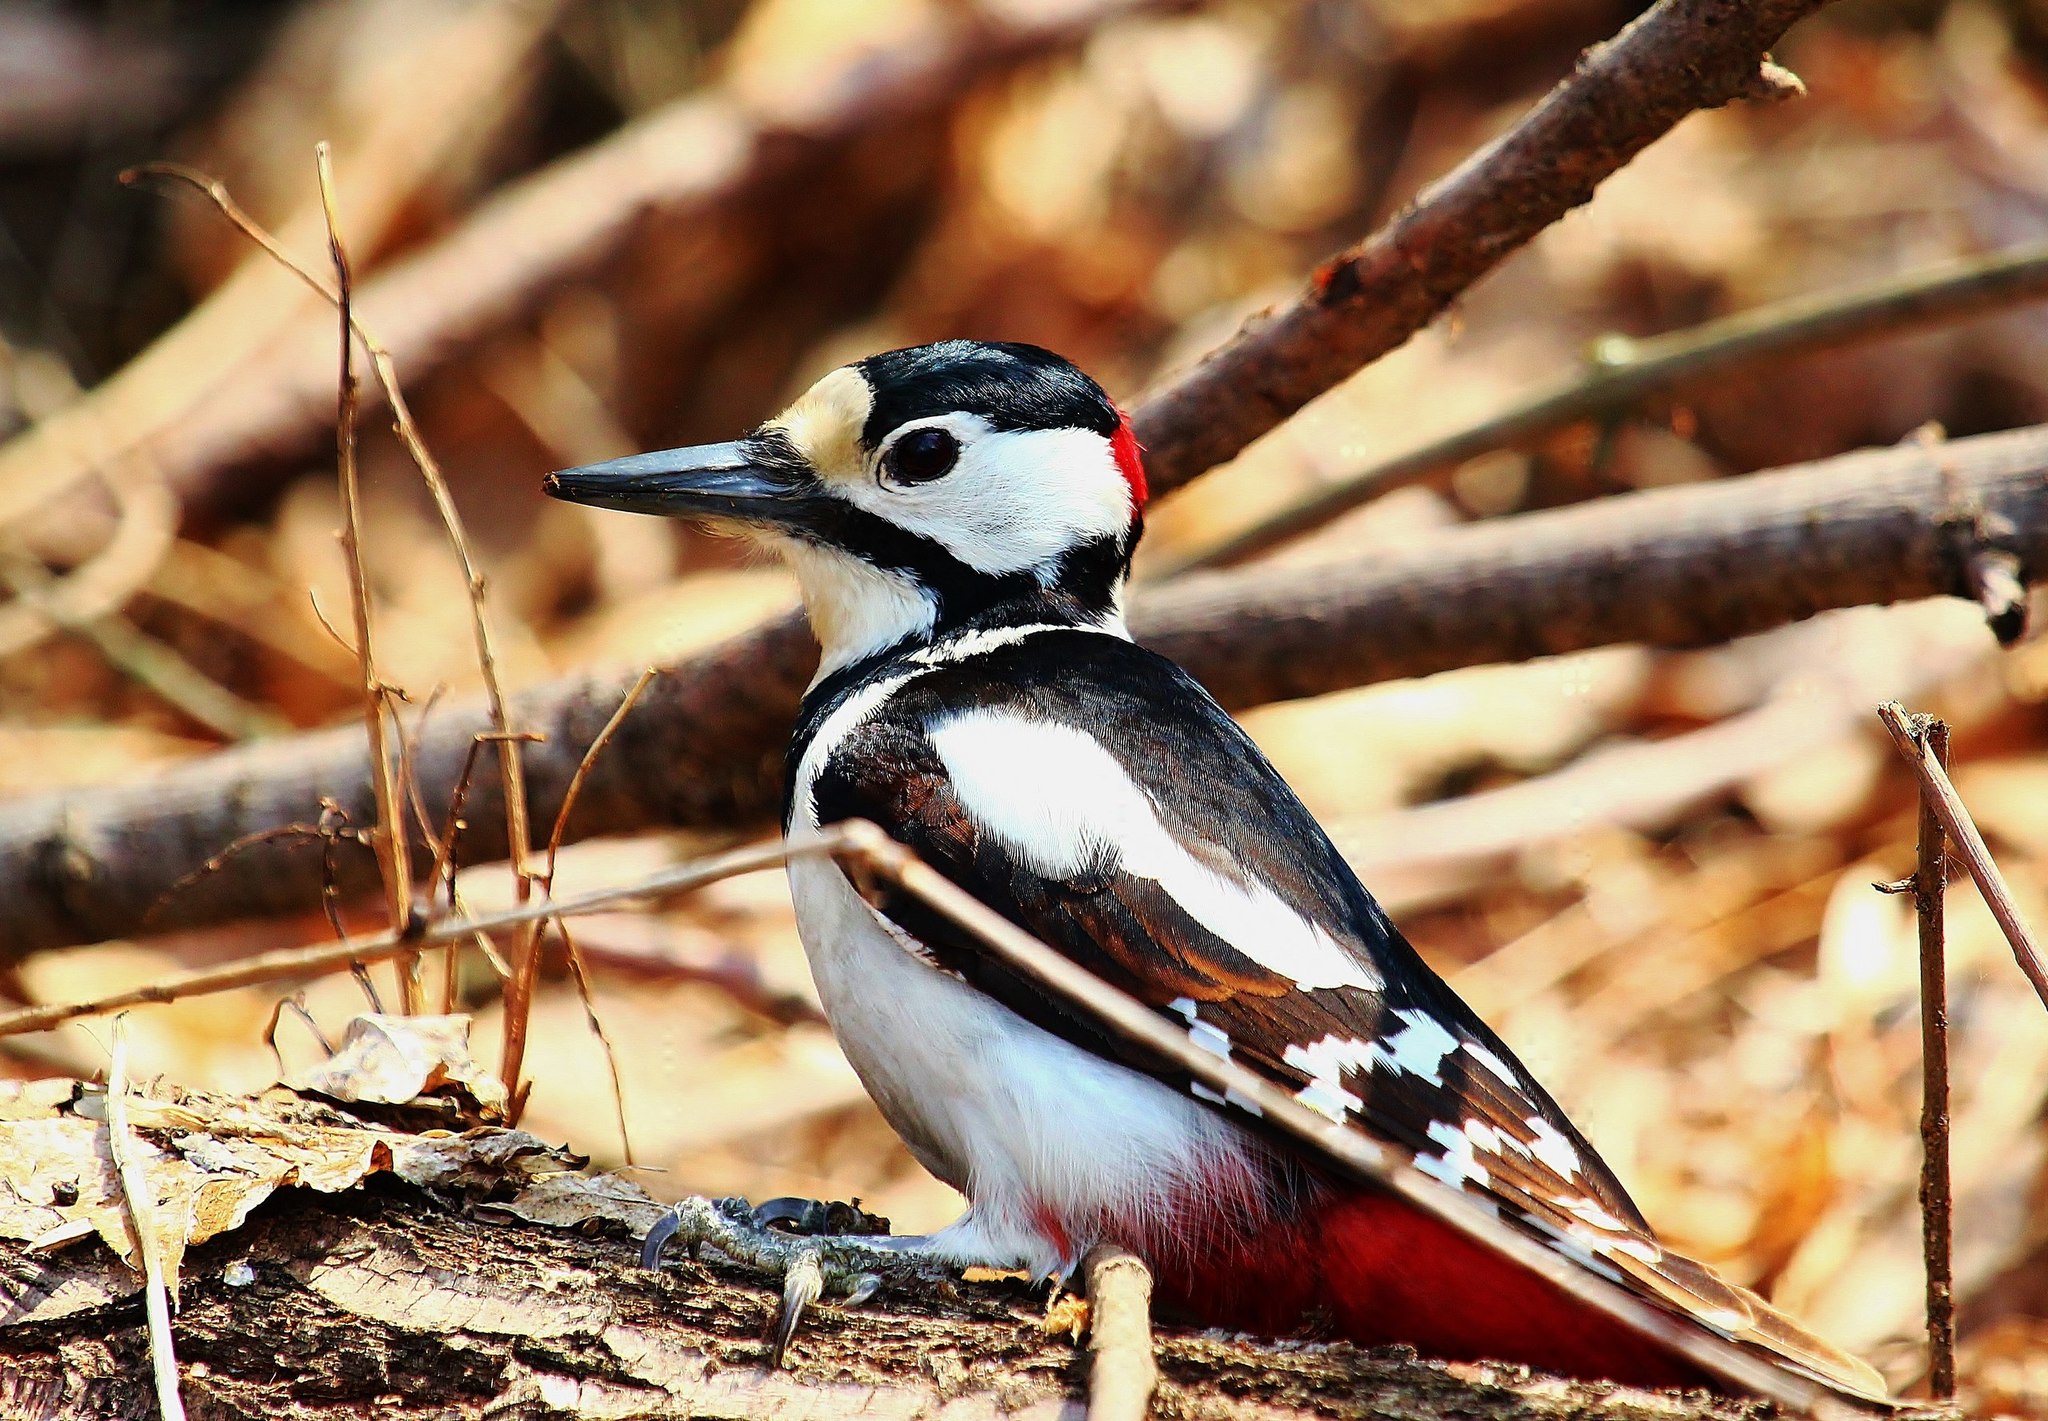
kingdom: Animalia
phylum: Chordata
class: Aves
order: Piciformes
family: Picidae
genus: Dendrocopos
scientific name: Dendrocopos major
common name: Great spotted woodpecker
